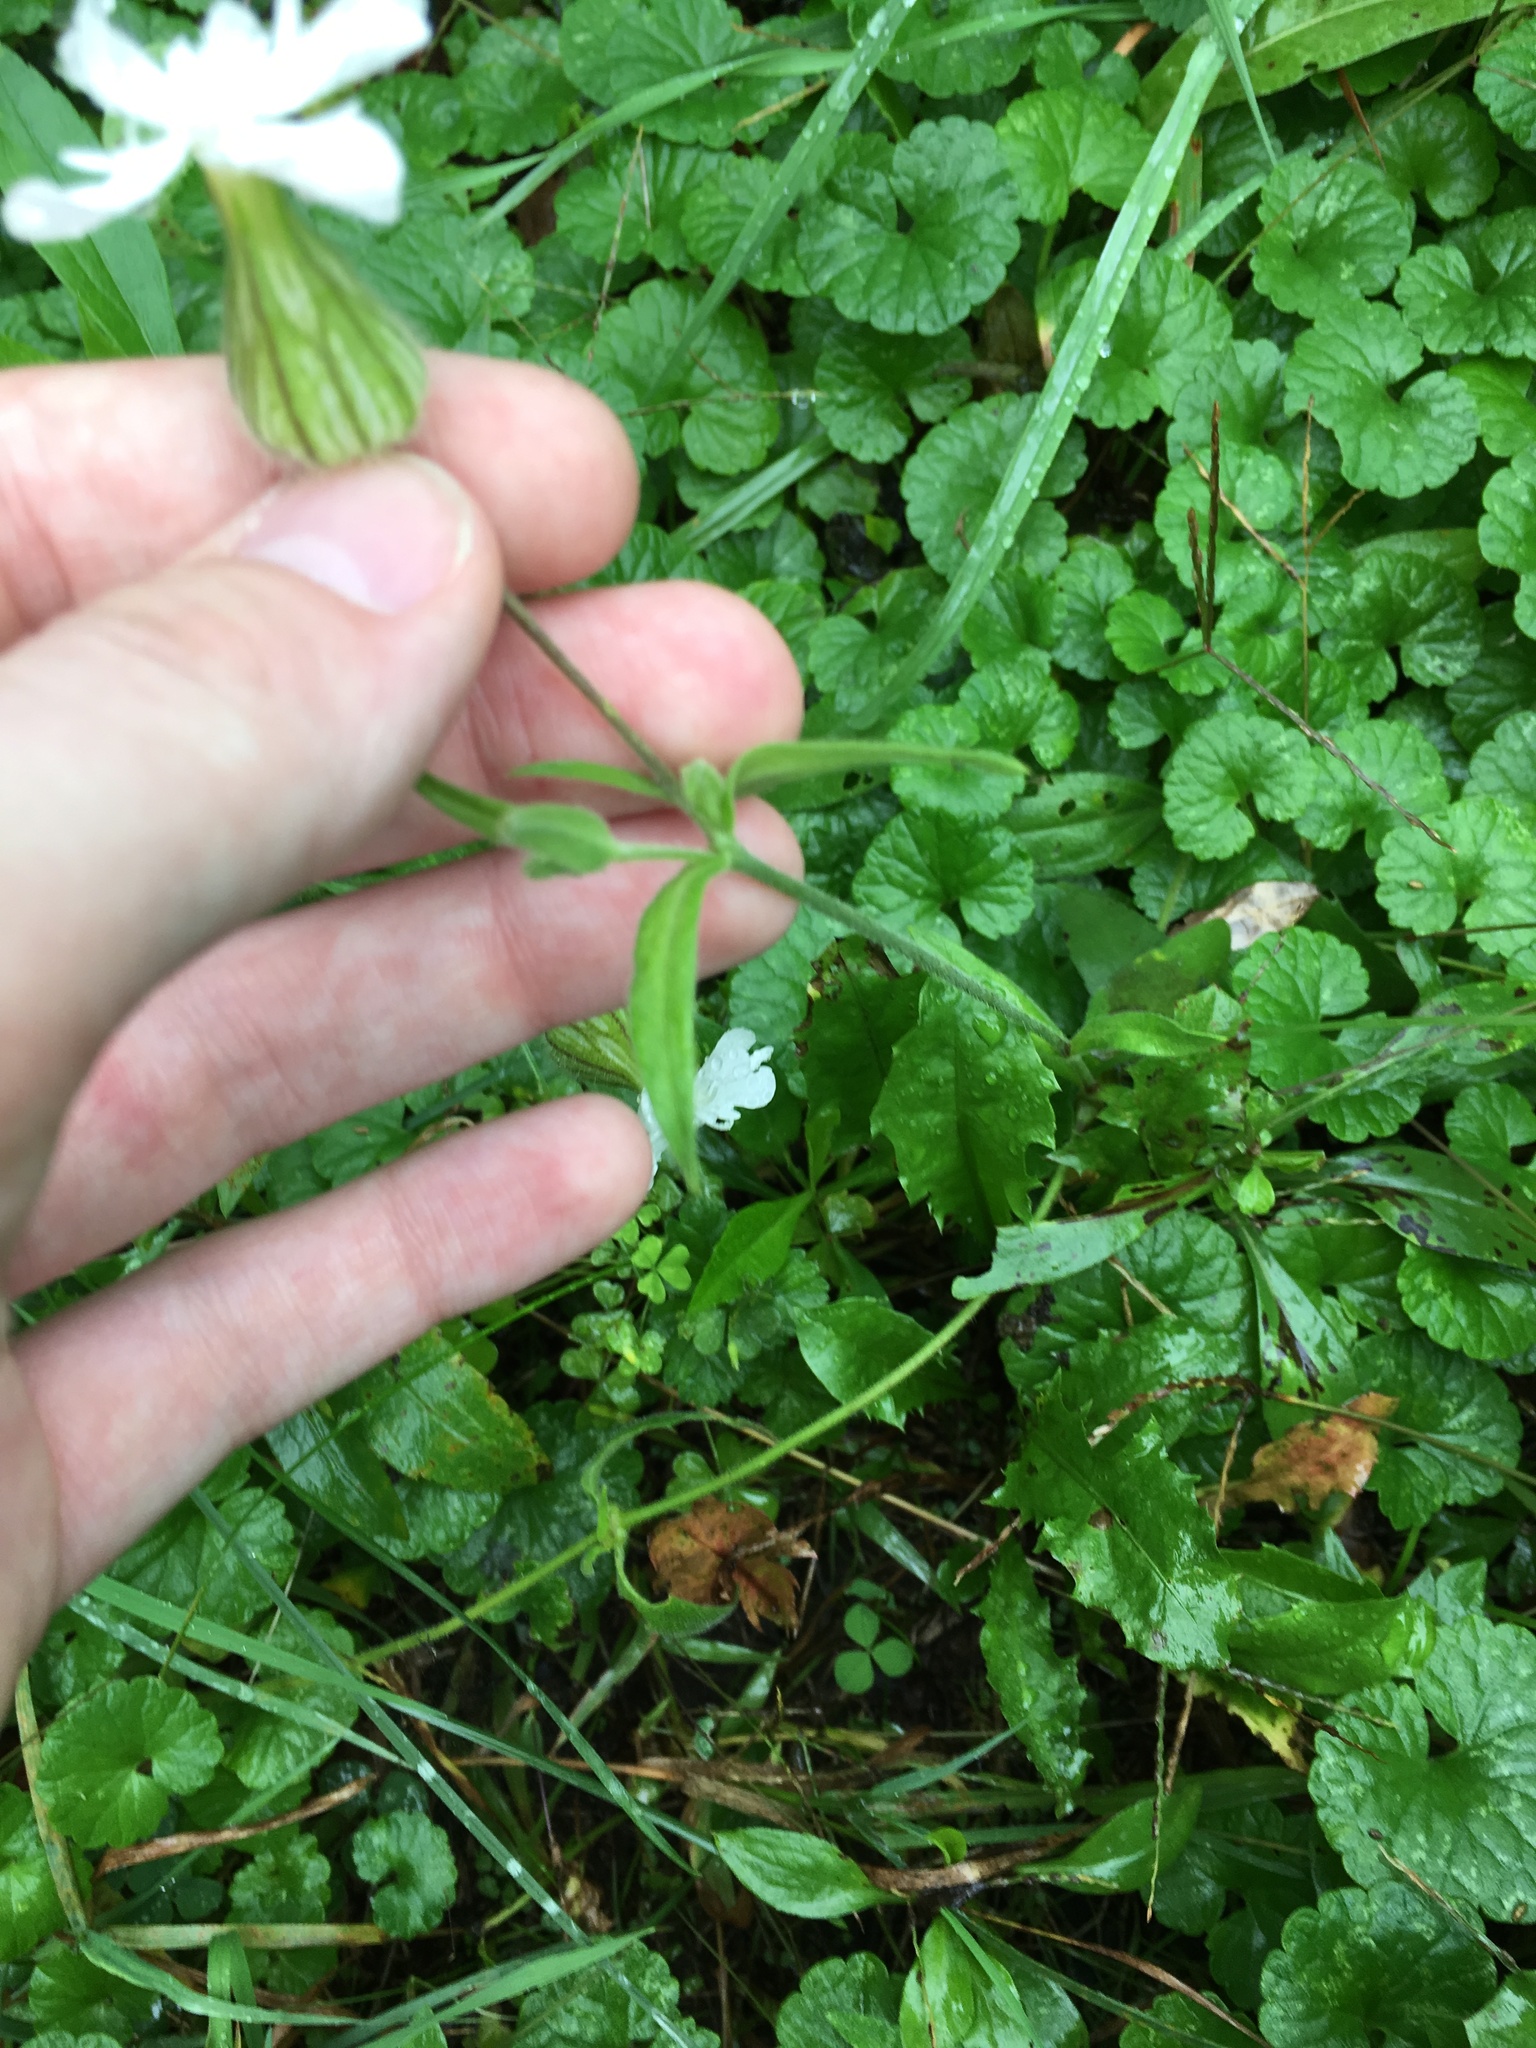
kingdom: Plantae
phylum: Tracheophyta
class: Magnoliopsida
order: Caryophyllales
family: Caryophyllaceae
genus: Silene
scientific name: Silene latifolia
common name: White campion
